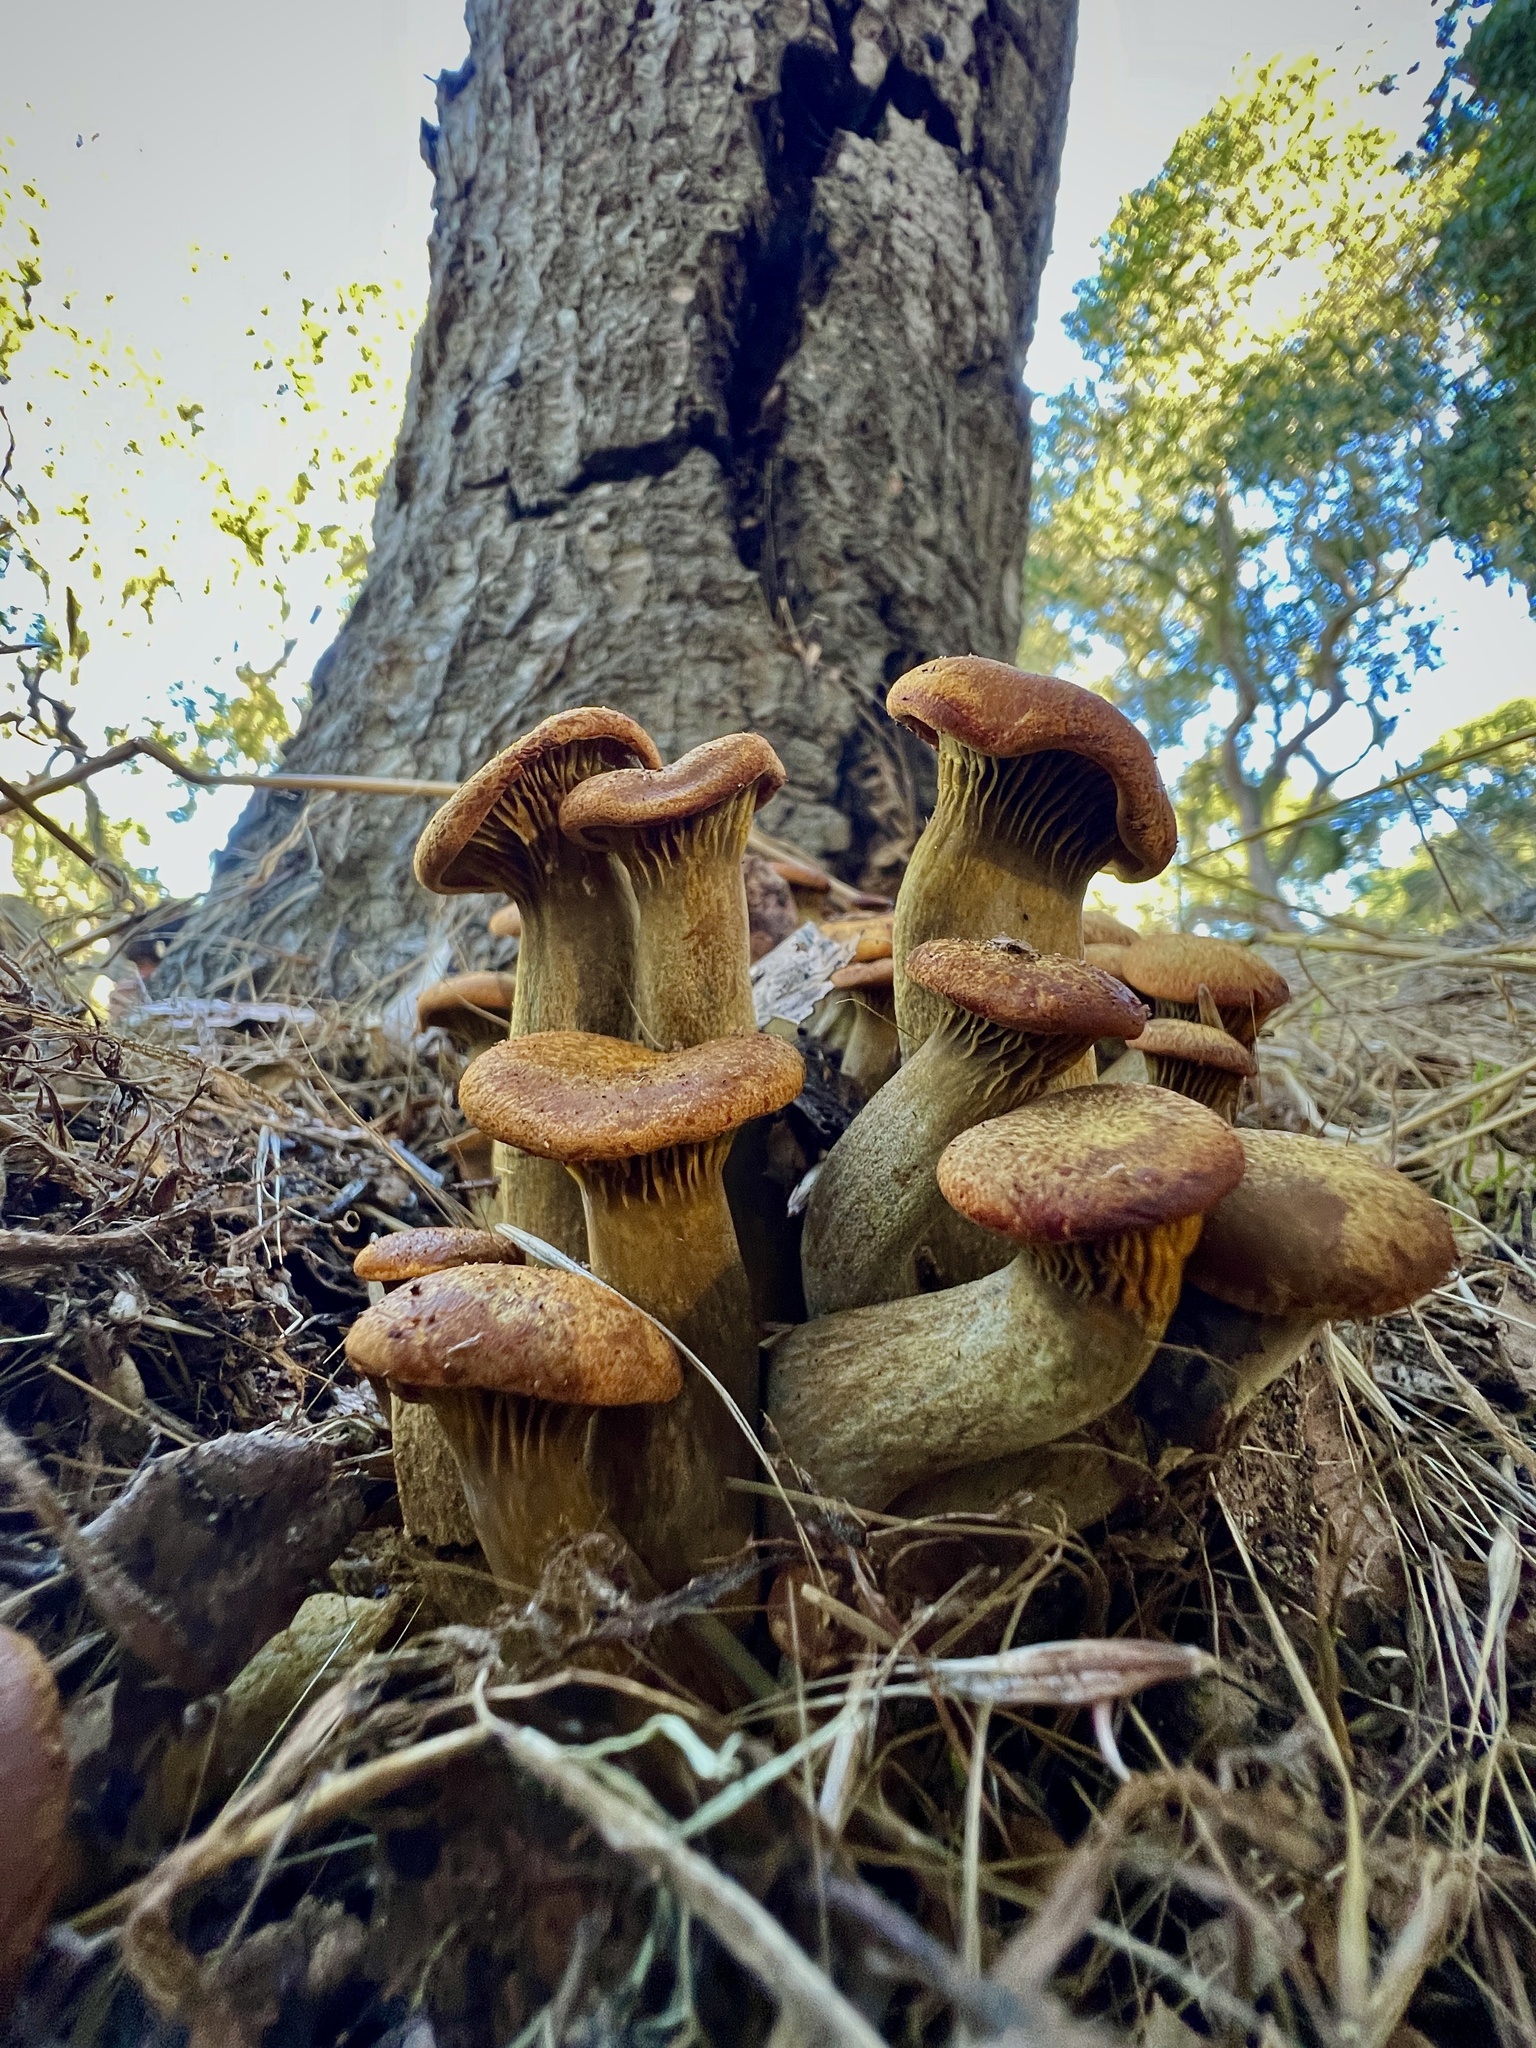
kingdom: Fungi
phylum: Basidiomycota
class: Agaricomycetes
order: Agaricales
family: Omphalotaceae
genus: Omphalotus
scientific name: Omphalotus olivascens
